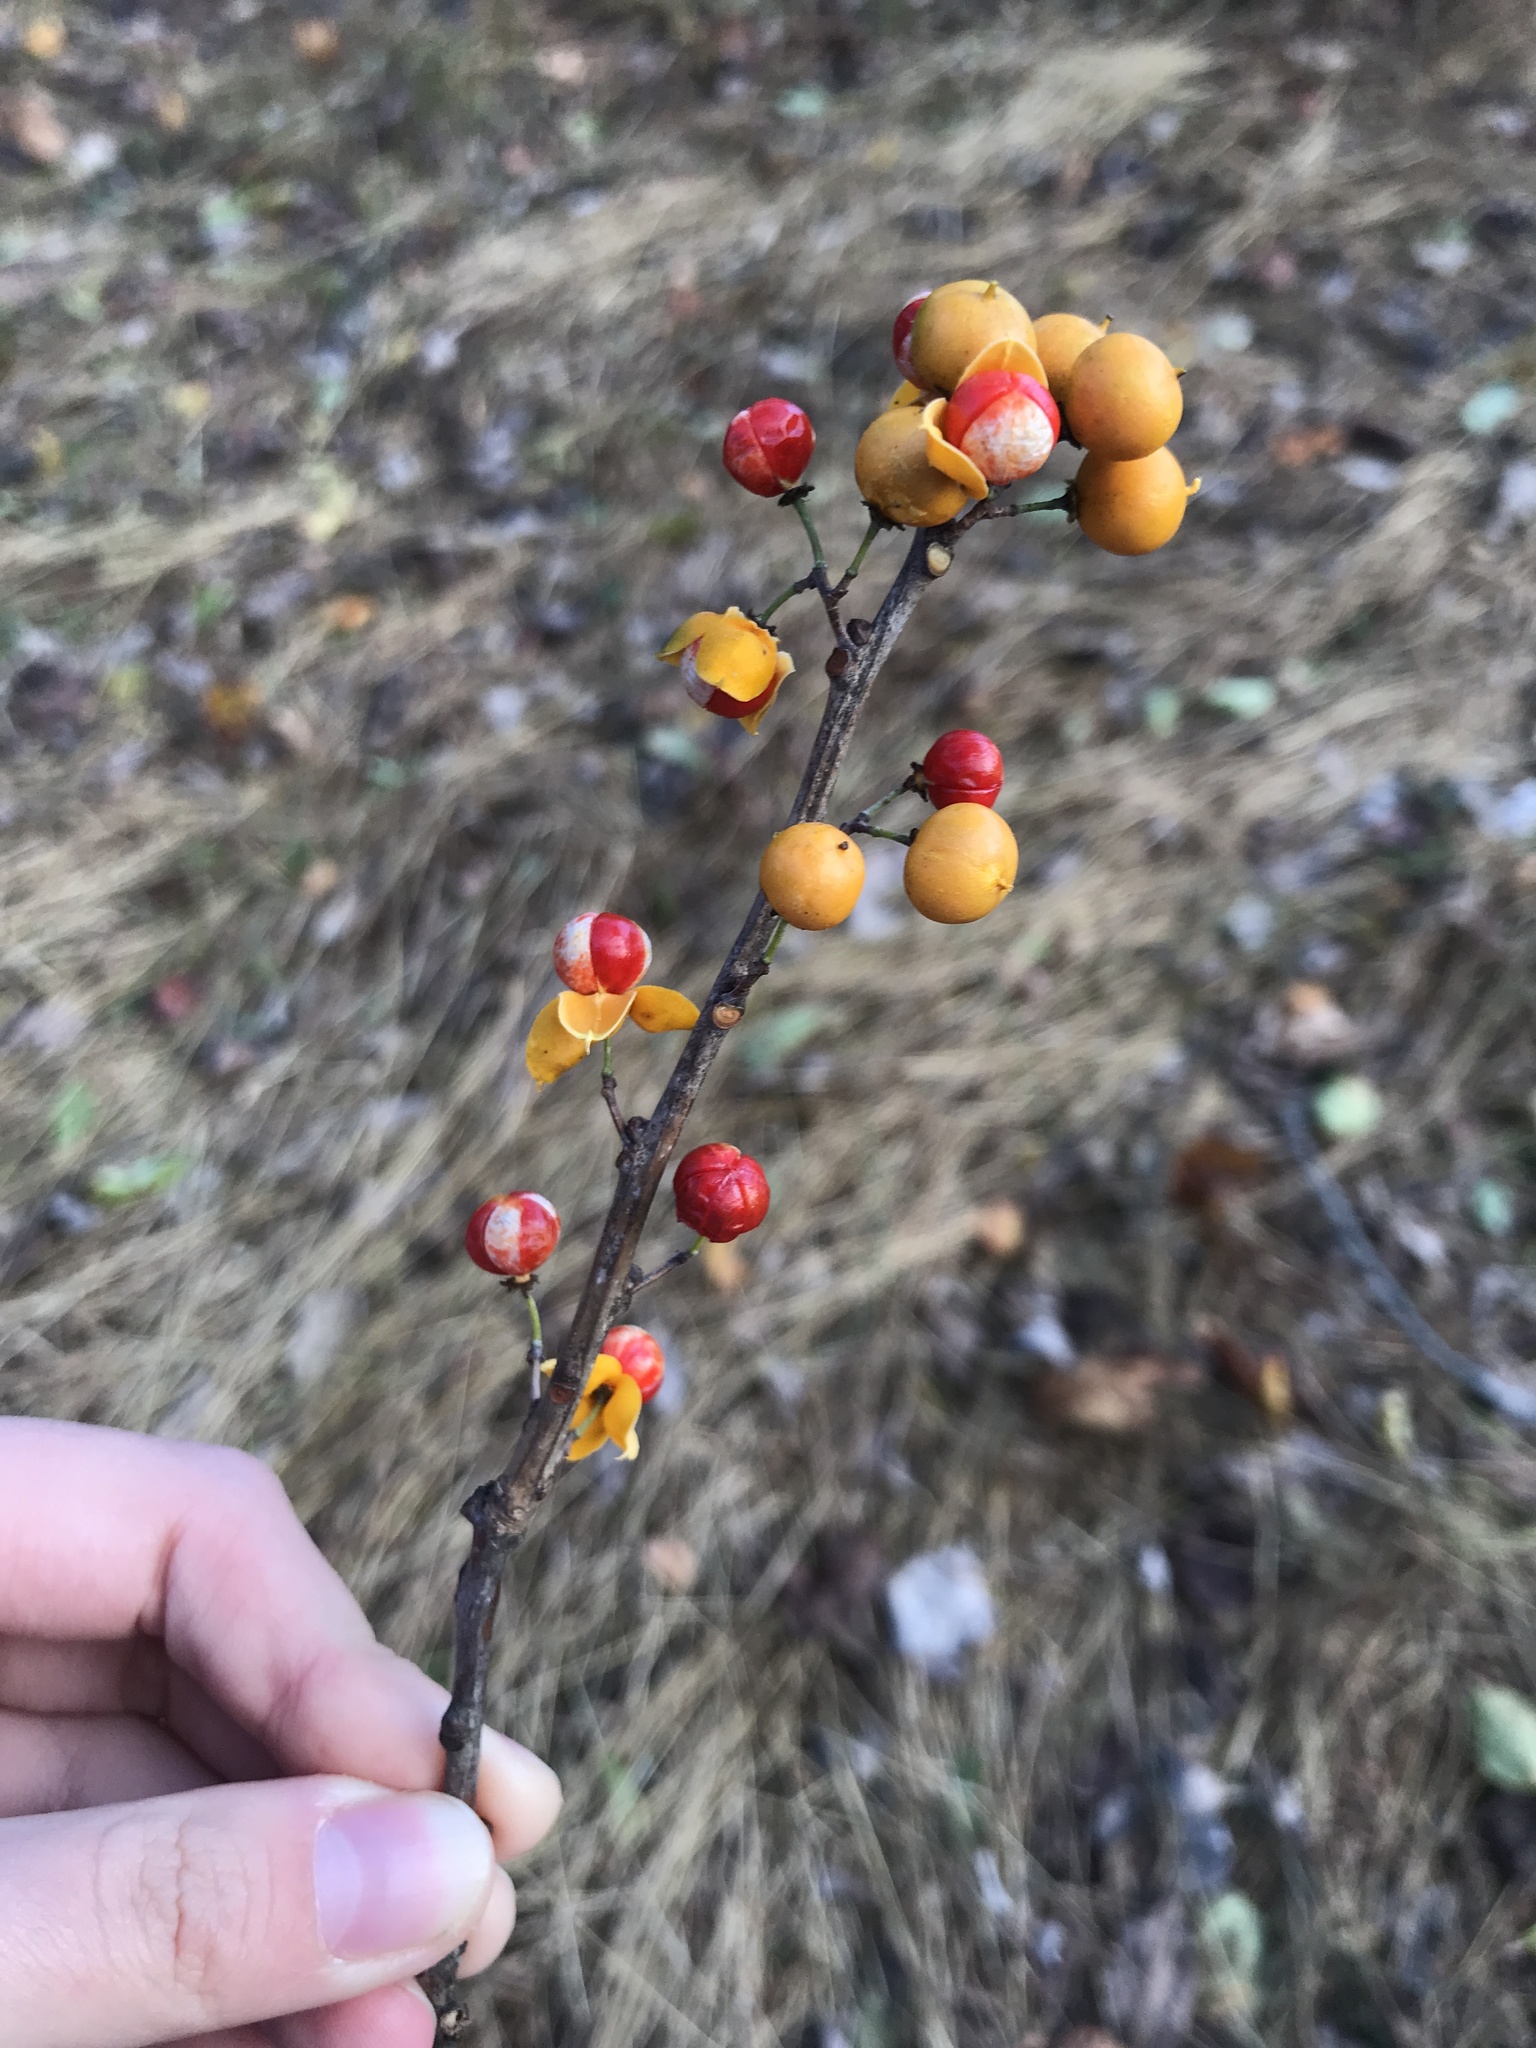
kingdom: Plantae
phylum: Tracheophyta
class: Magnoliopsida
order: Celastrales
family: Celastraceae
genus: Celastrus
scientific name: Celastrus orbiculatus
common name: Oriental bittersweet
